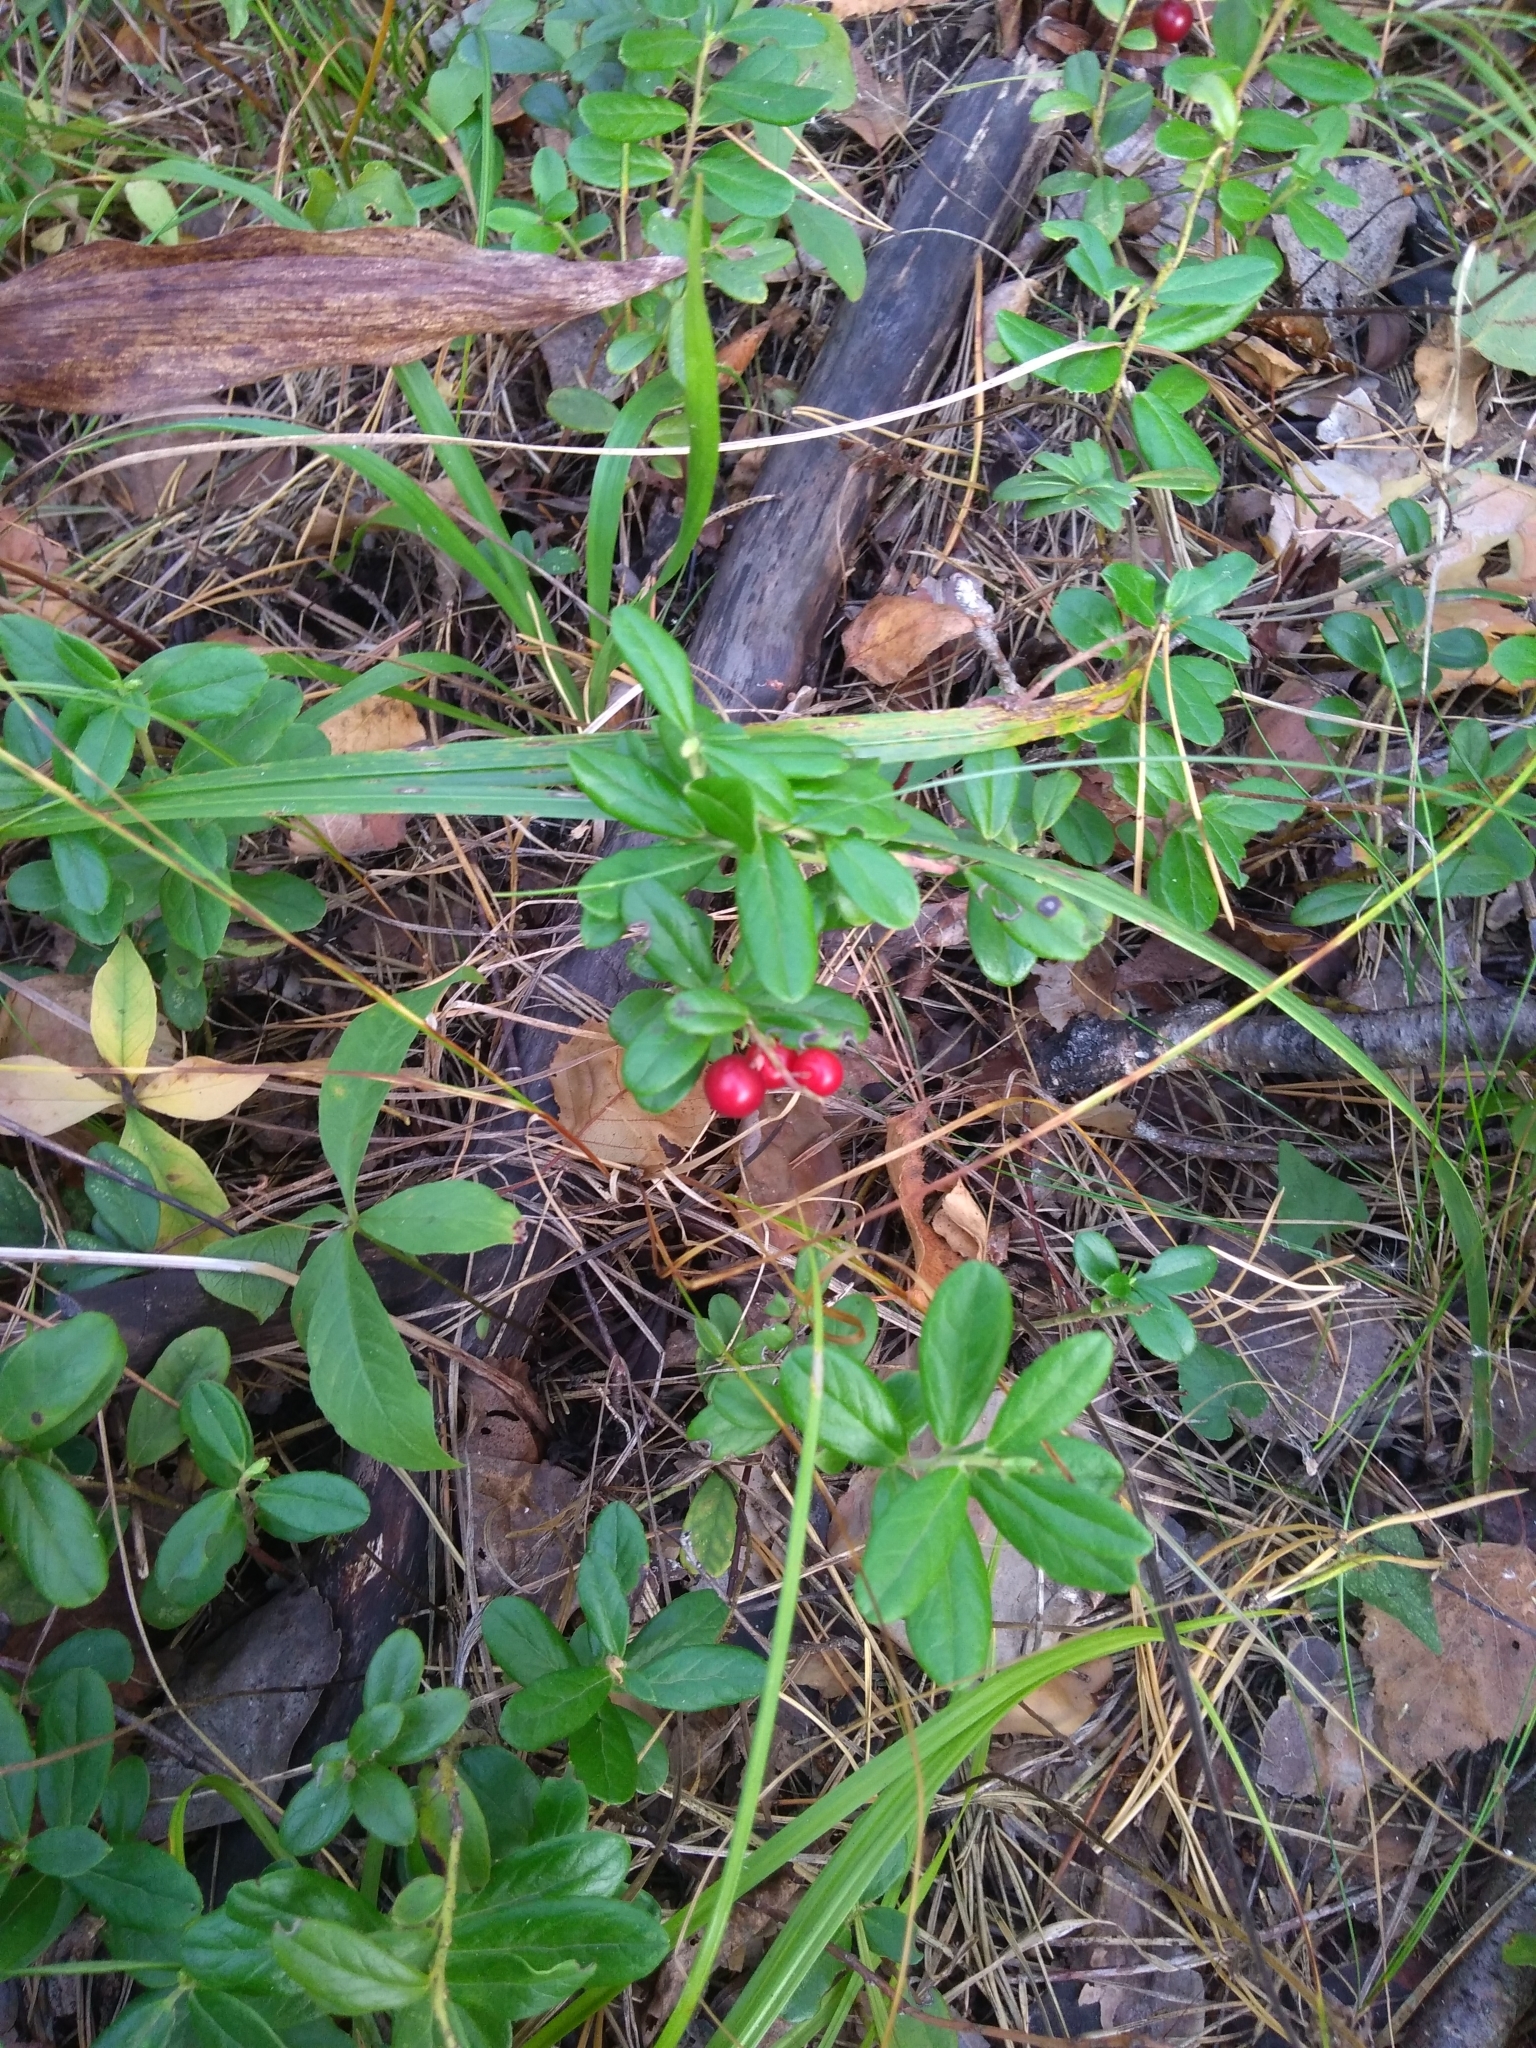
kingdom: Plantae
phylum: Tracheophyta
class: Magnoliopsida
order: Ericales
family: Ericaceae
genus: Vaccinium
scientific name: Vaccinium vitis-idaea
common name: Cowberry
